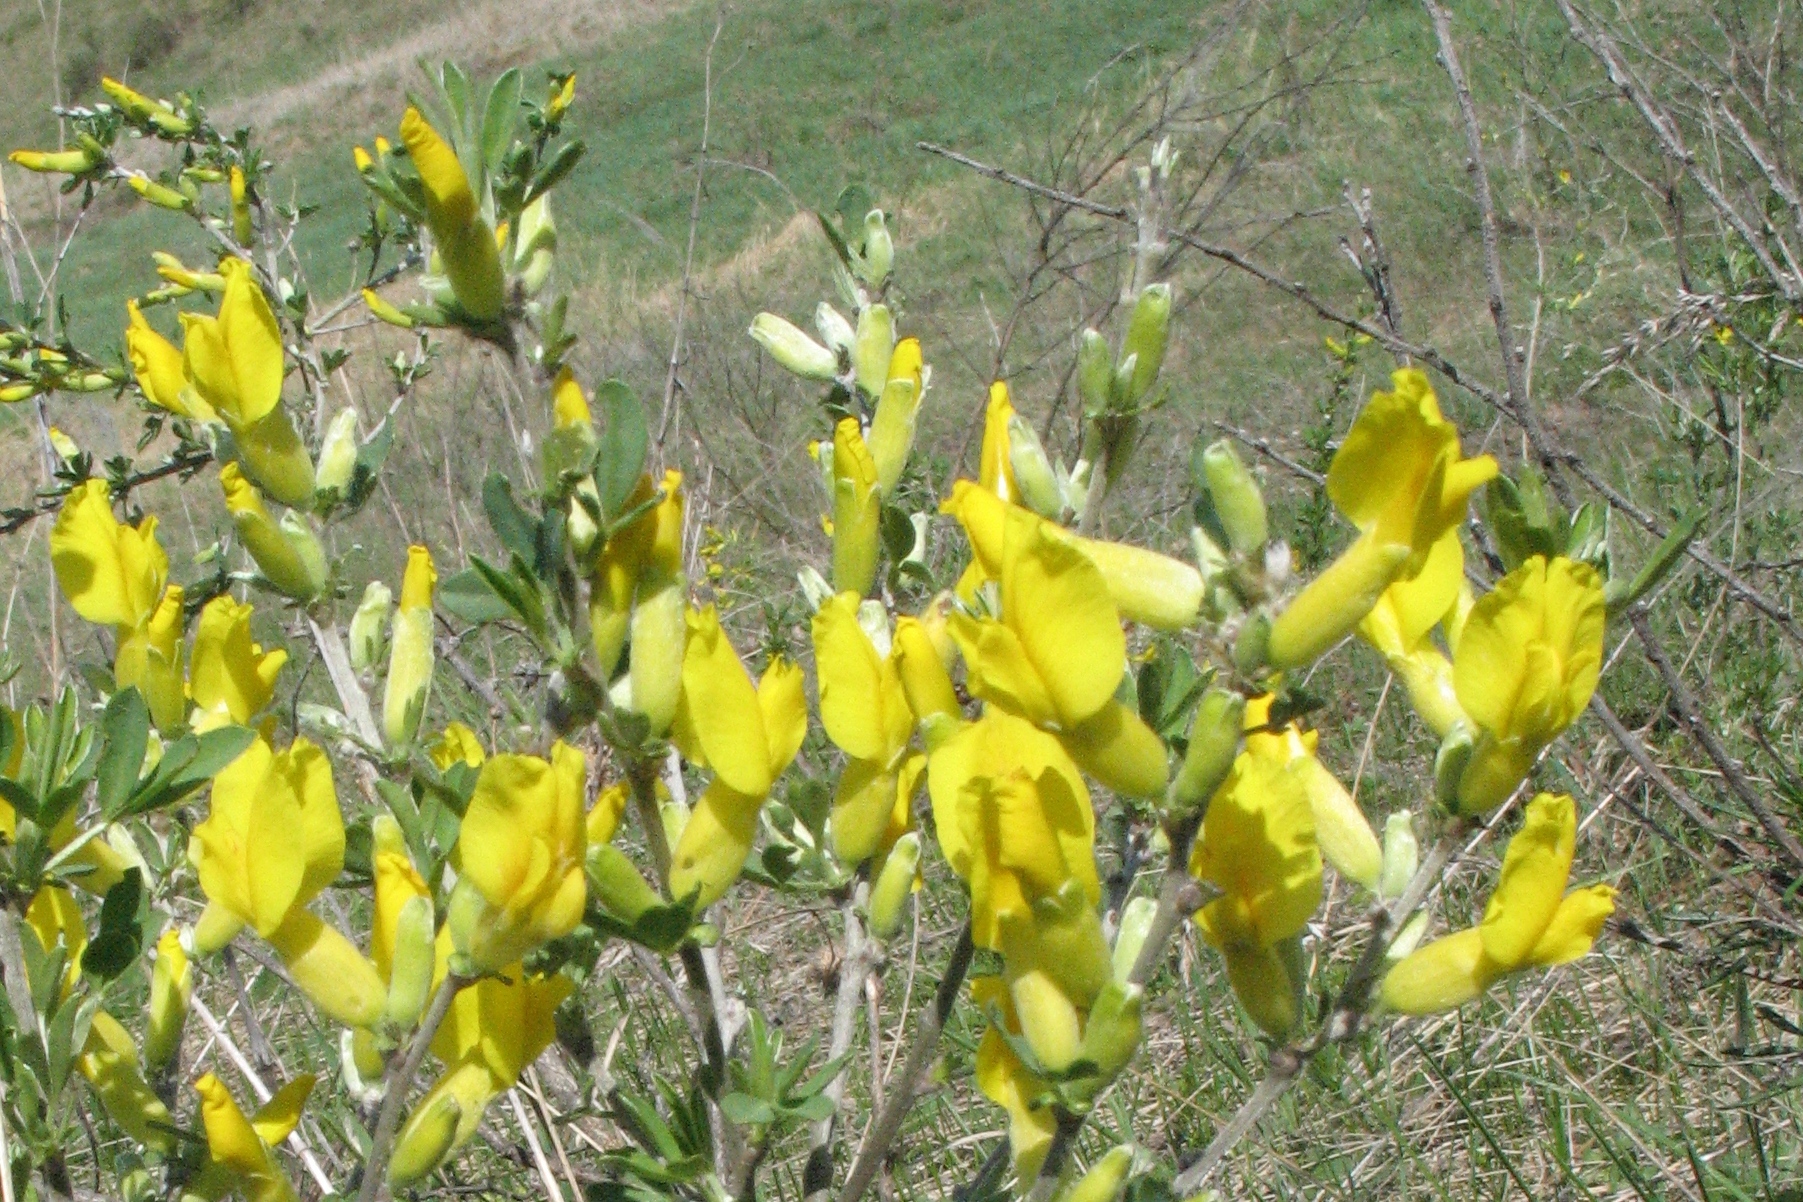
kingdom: Plantae
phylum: Tracheophyta
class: Magnoliopsida
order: Fabales
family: Fabaceae
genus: Chamaecytisus
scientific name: Chamaecytisus ruthenicus
